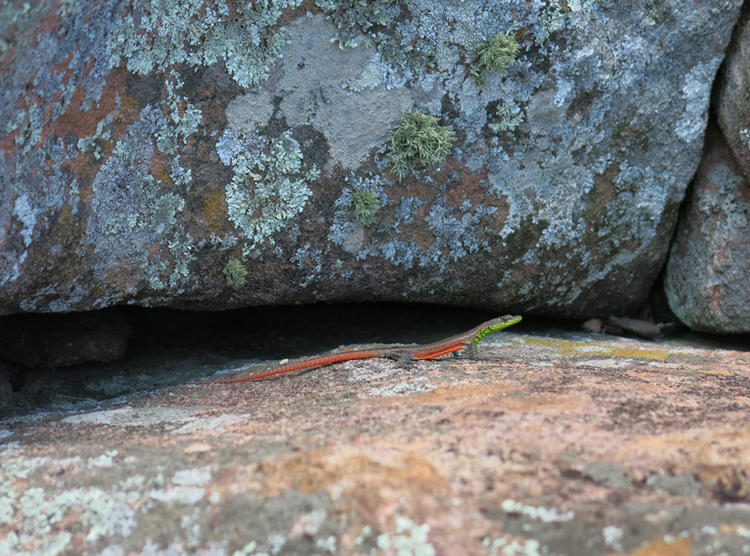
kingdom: Animalia
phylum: Chordata
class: Squamata
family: Cordylidae
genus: Platysaurus
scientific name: Platysaurus minor
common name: Waterberg flat lizard
